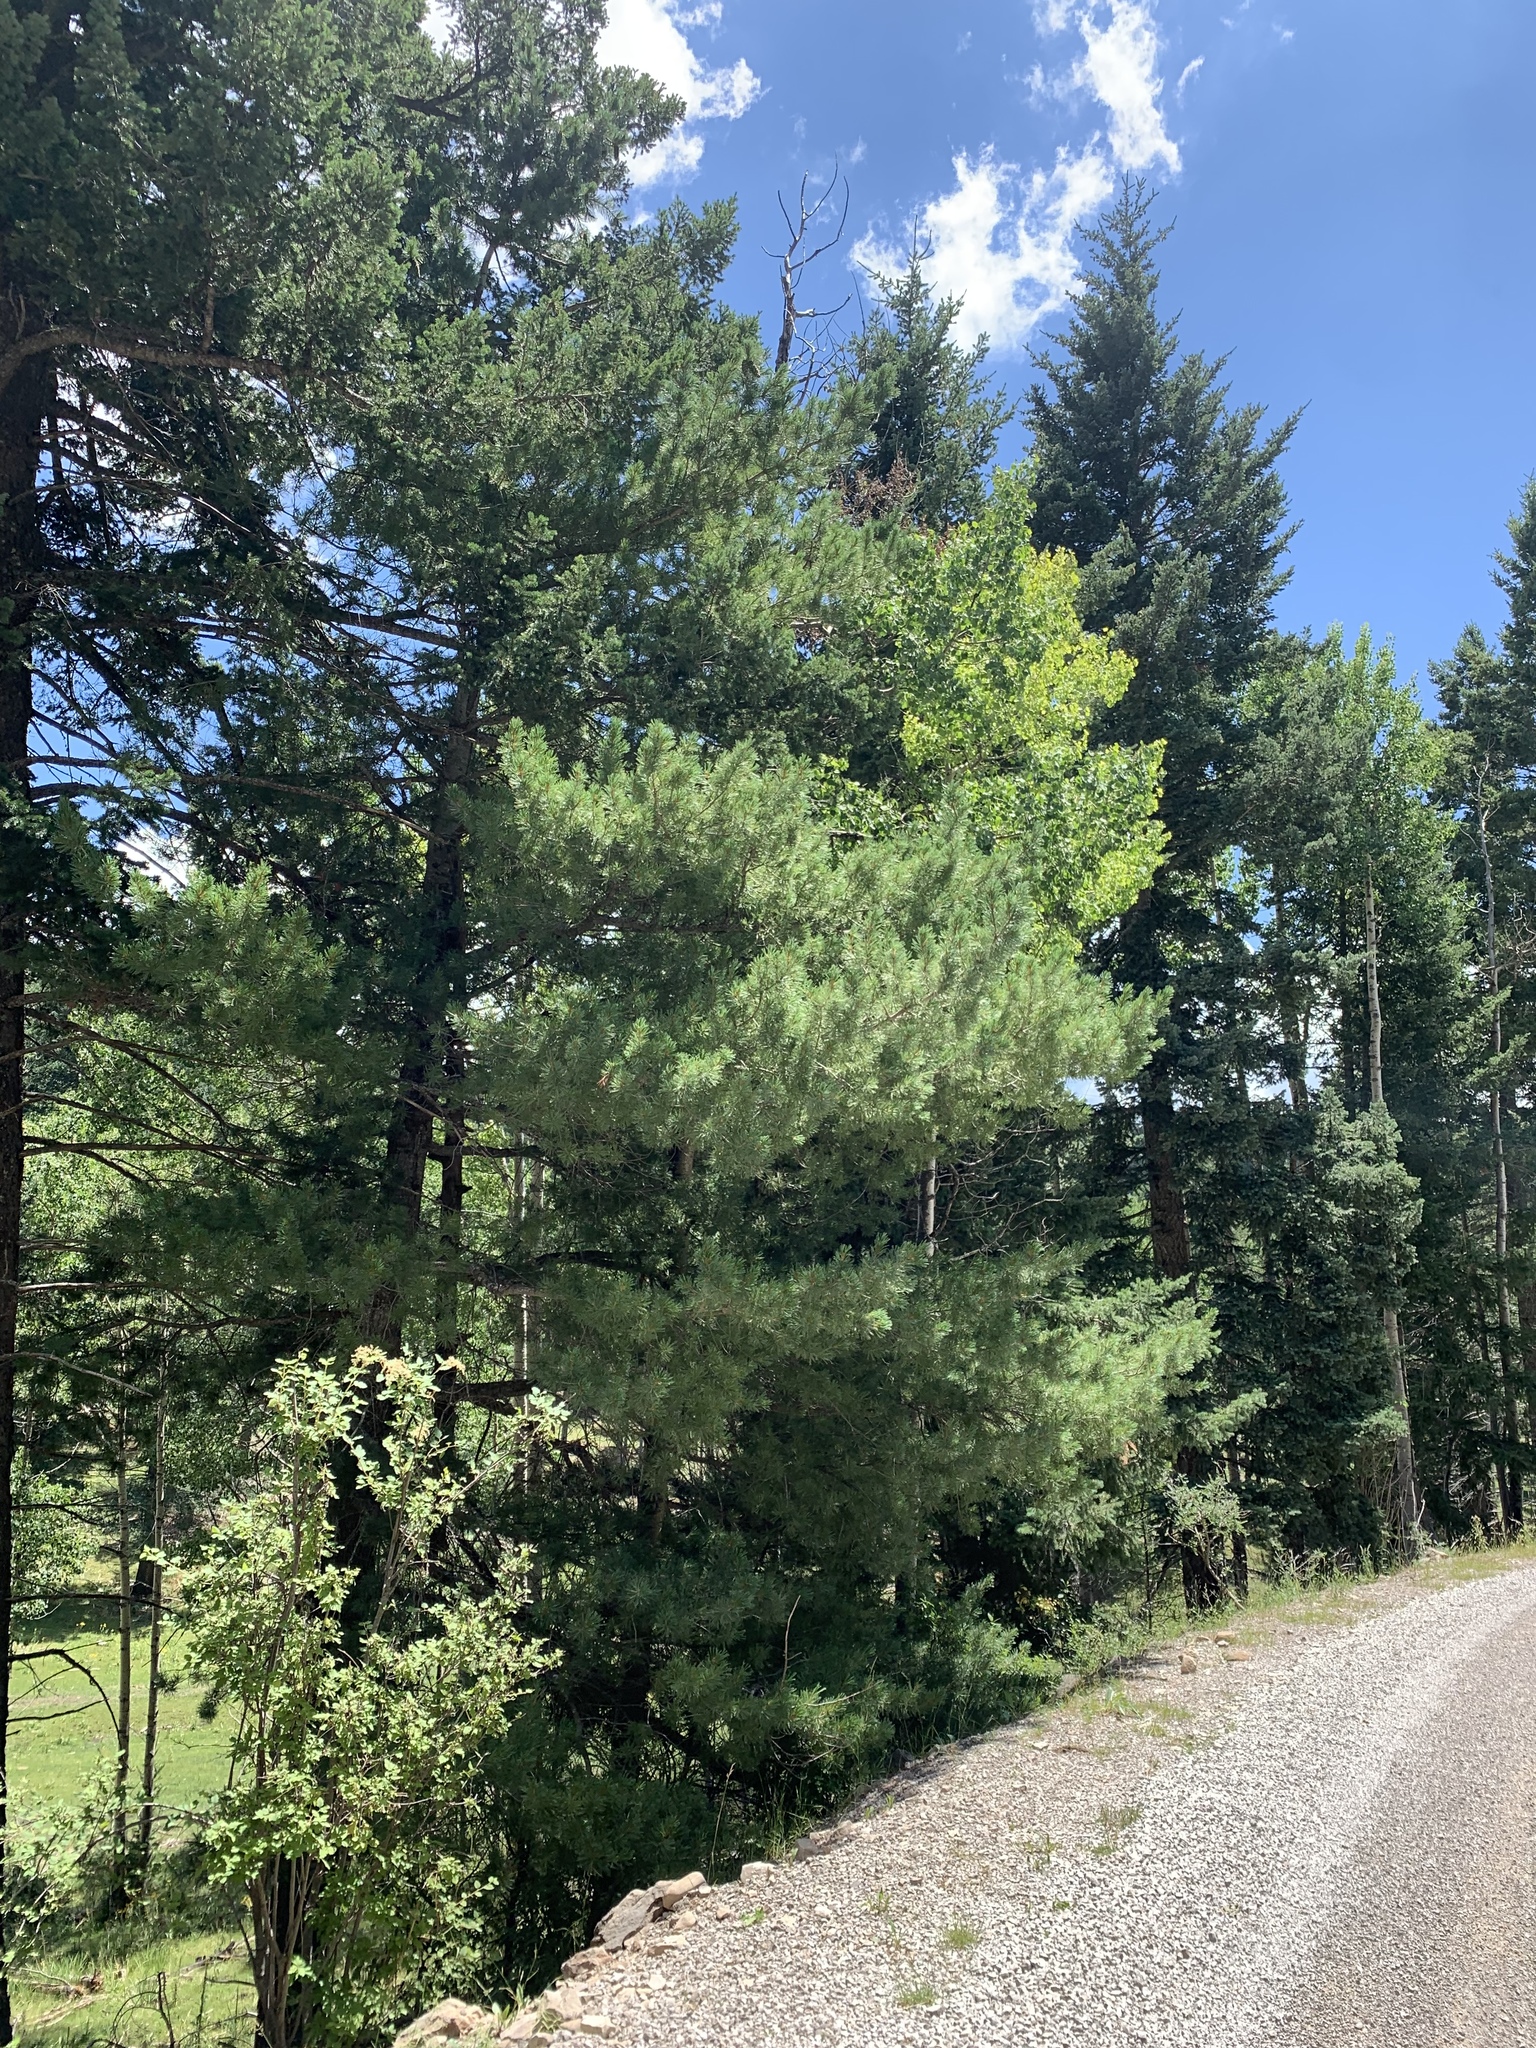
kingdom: Plantae
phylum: Tracheophyta
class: Pinopsida
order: Pinales
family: Pinaceae
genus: Pinus
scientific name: Pinus strobiformis
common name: Southwestern white pine
